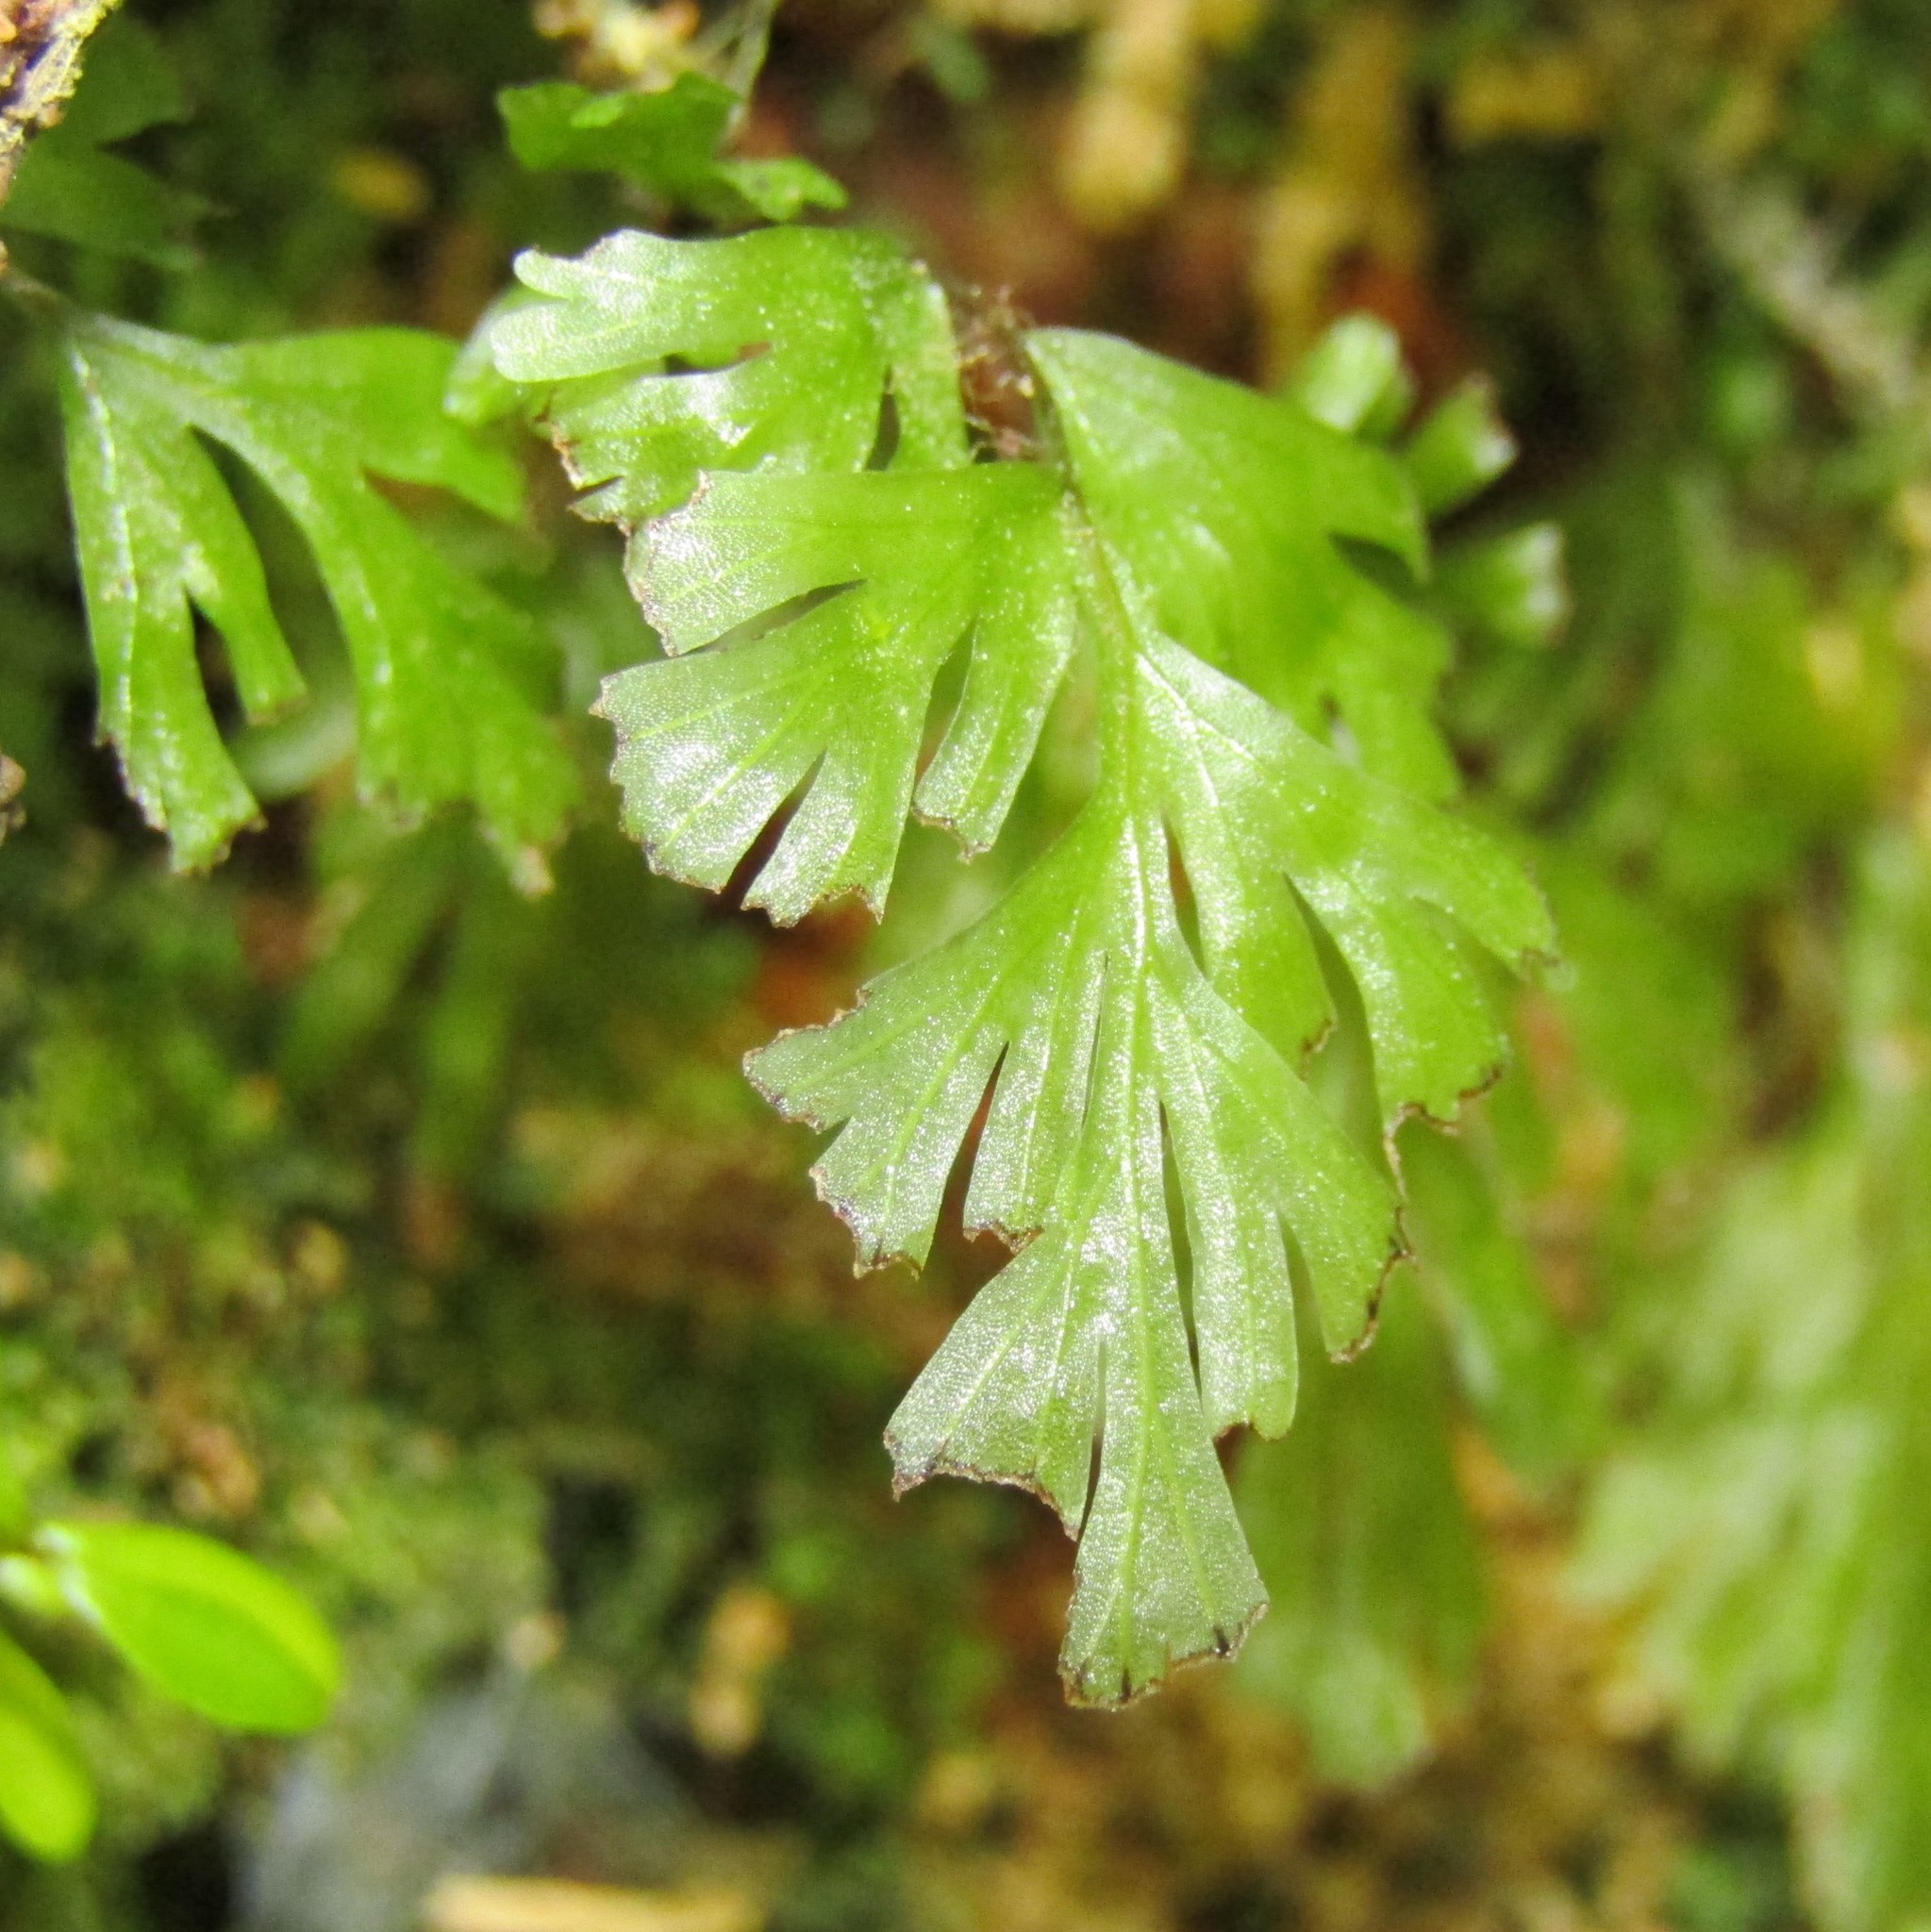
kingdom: Plantae
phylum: Tracheophyta
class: Polypodiopsida
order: Hymenophyllales
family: Hymenophyllaceae
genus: Hymenophyllum
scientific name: Hymenophyllum flabellatum
